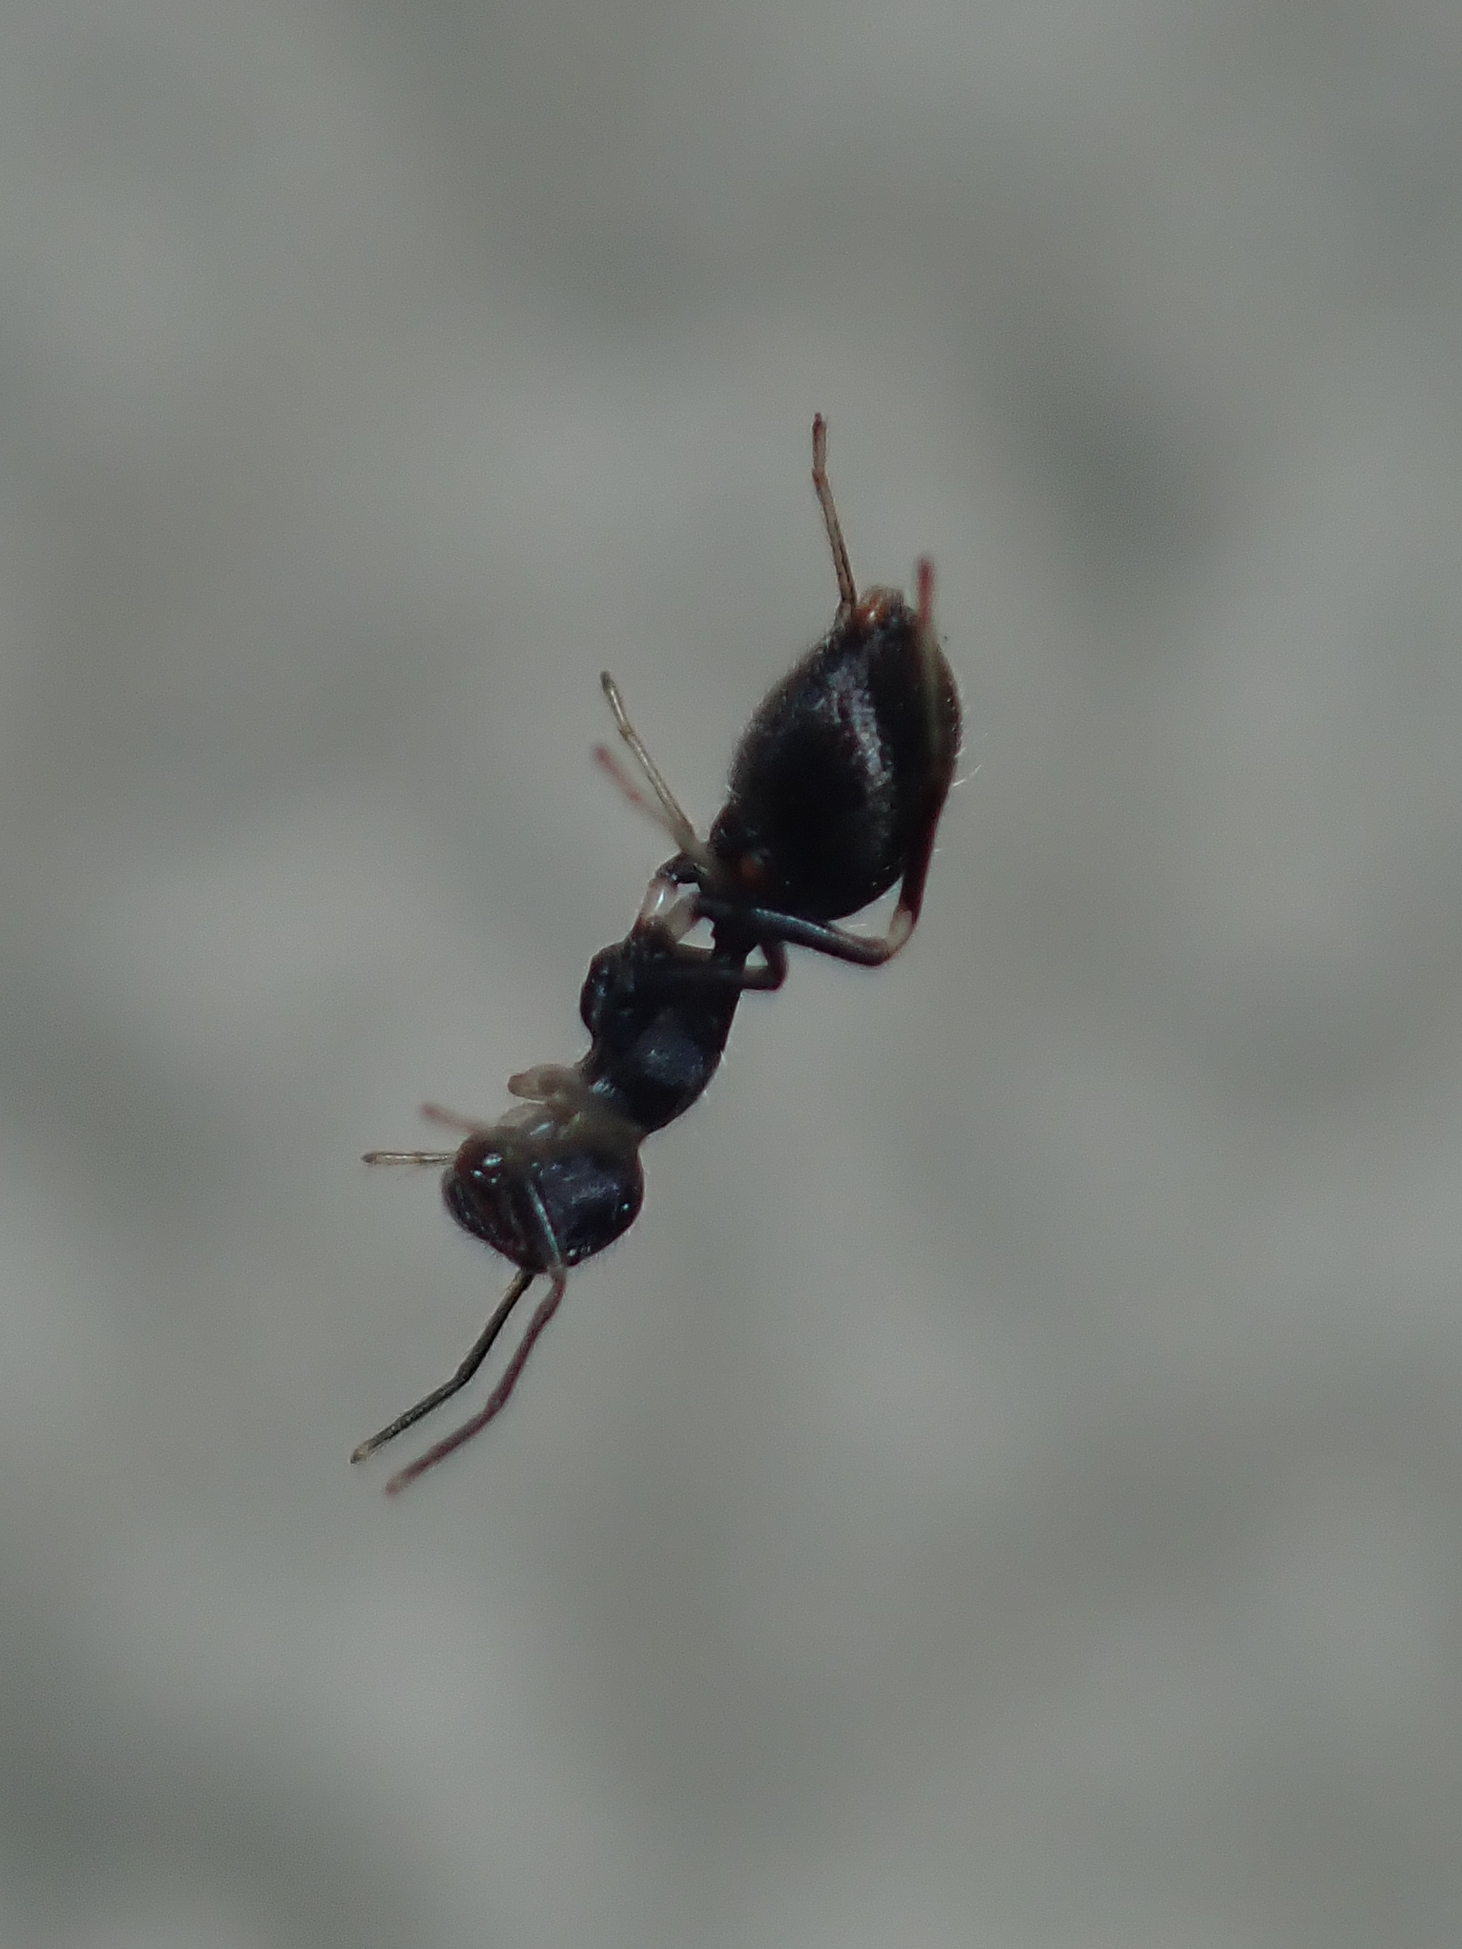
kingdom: Animalia
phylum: Arthropoda
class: Arachnida
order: Araneae
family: Salticidae
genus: Sympolymnia
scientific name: Sympolymnia lauretta
